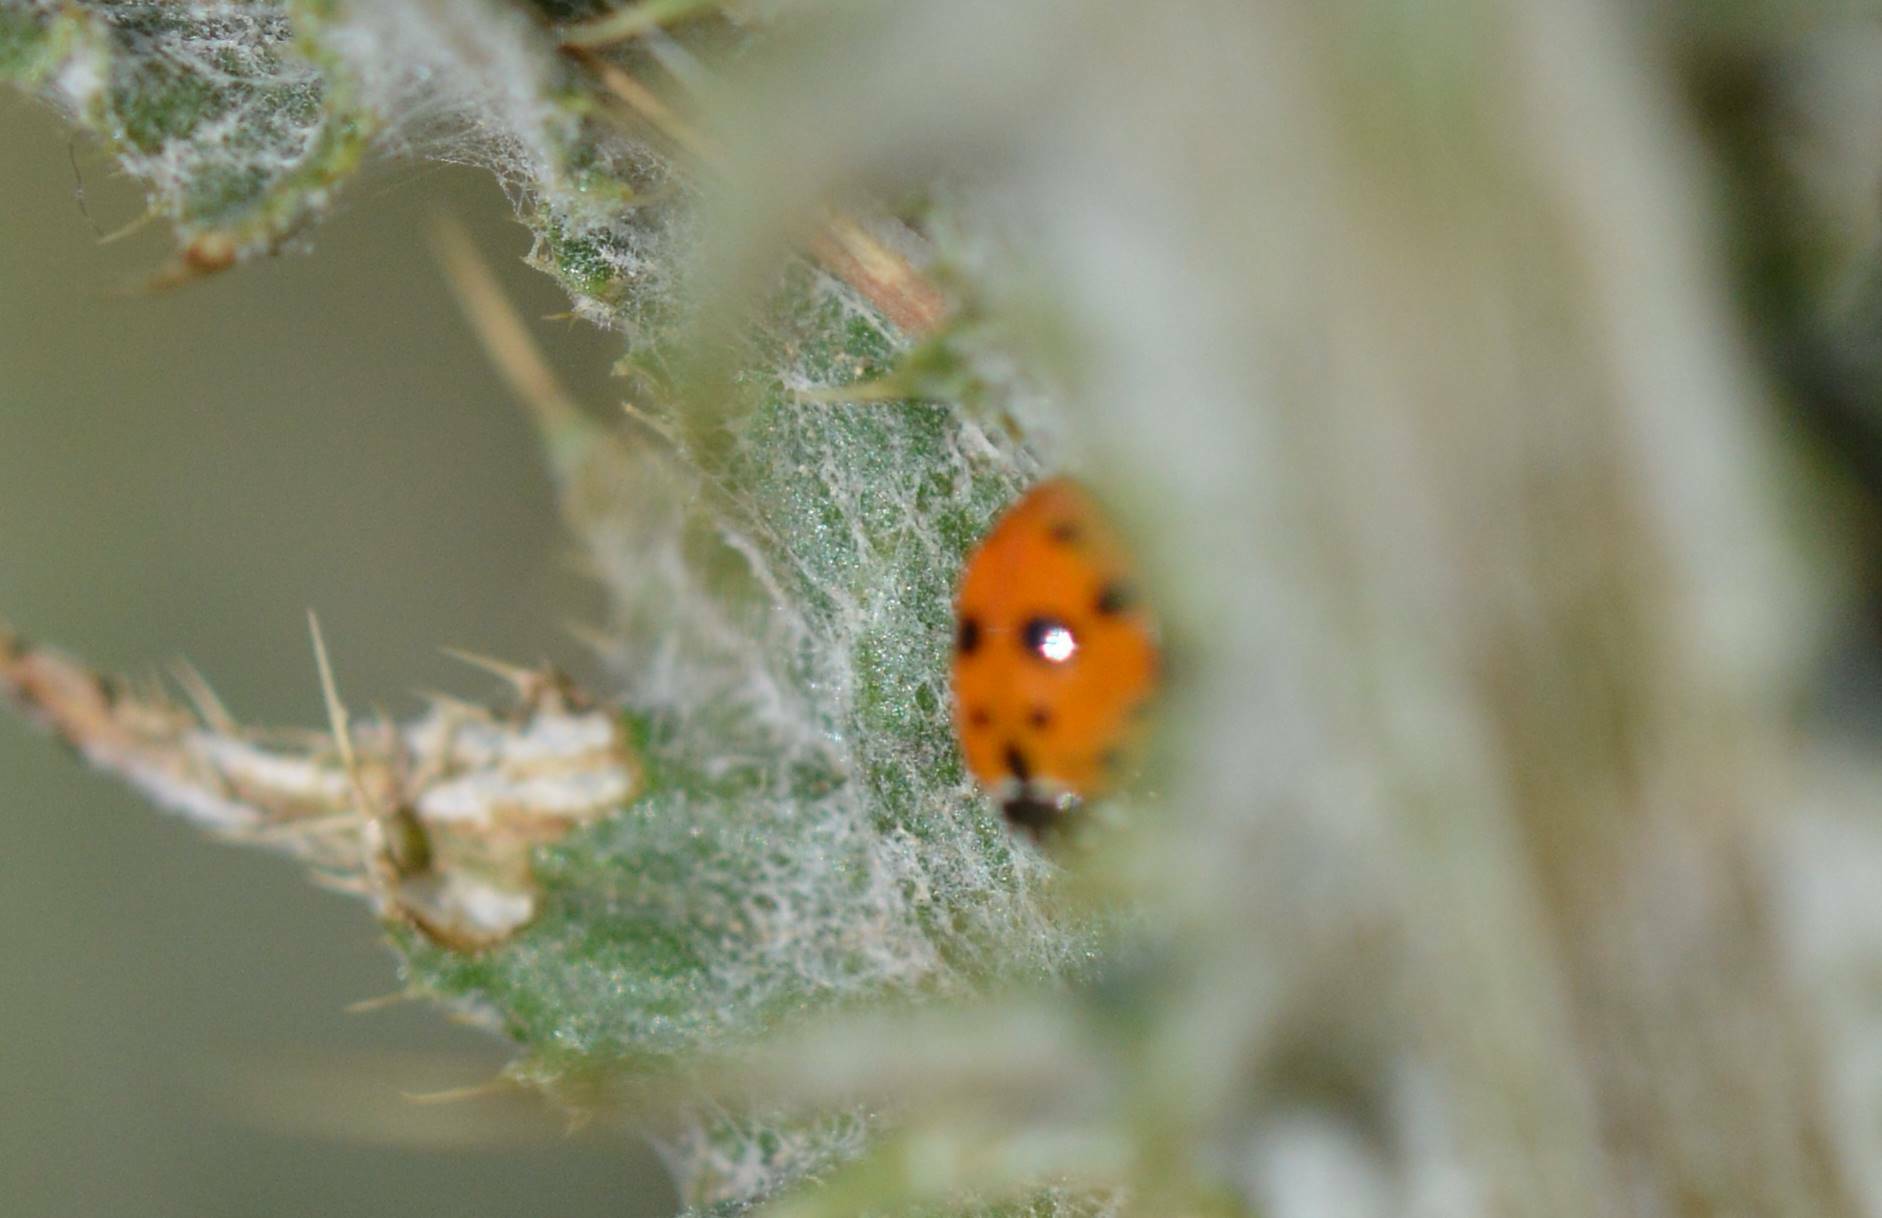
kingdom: Animalia
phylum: Arthropoda
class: Insecta
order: Coleoptera
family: Coccinellidae
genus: Hippodamia
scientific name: Hippodamia variegata
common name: Ladybird beetle
